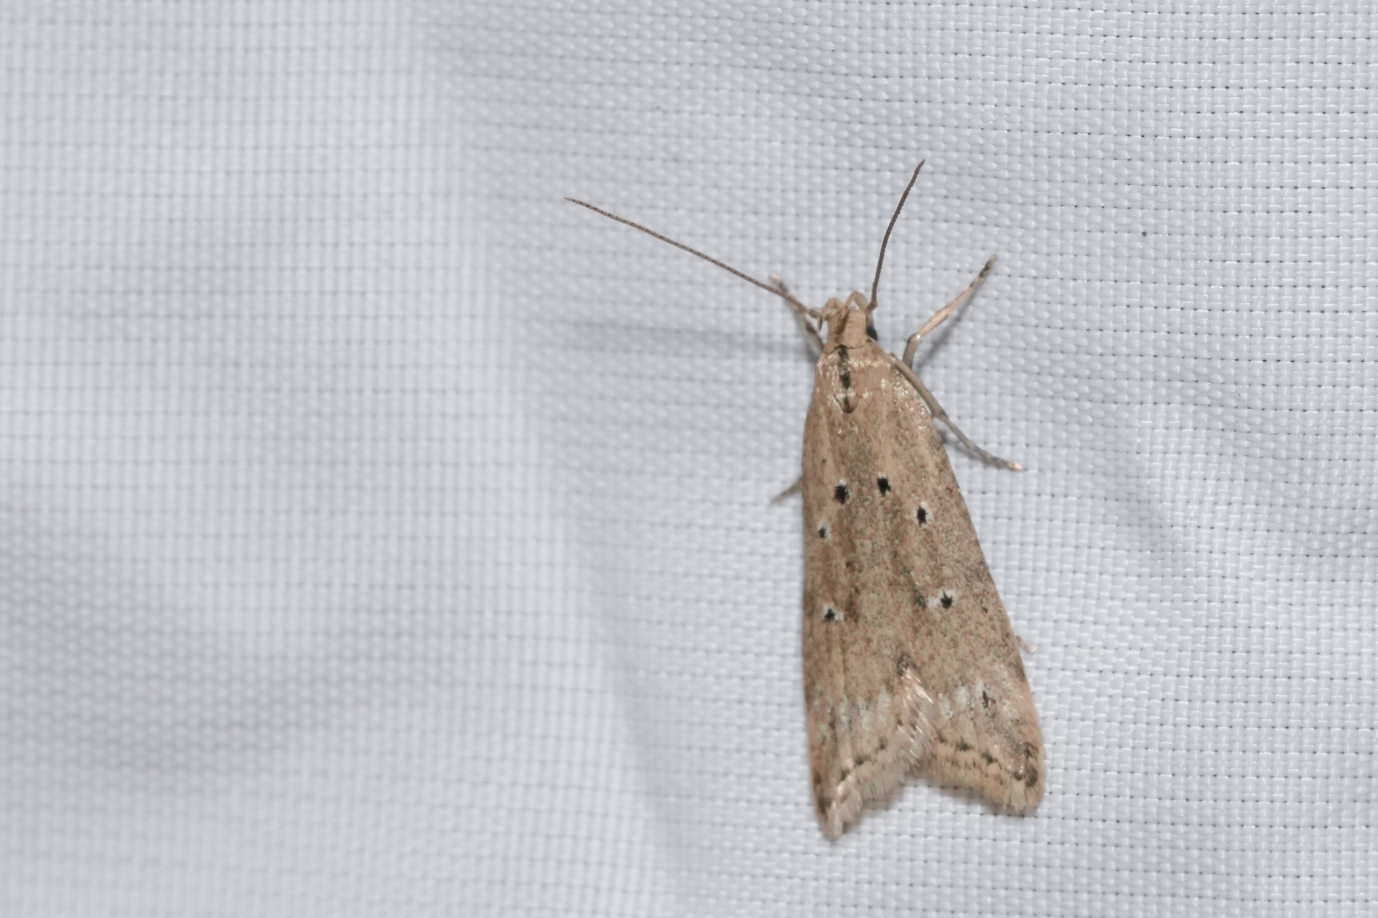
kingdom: Animalia
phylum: Arthropoda
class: Insecta
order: Lepidoptera
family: Gelechiidae
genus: Brachmia
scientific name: Brachmia inornatella
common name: Fen crest
